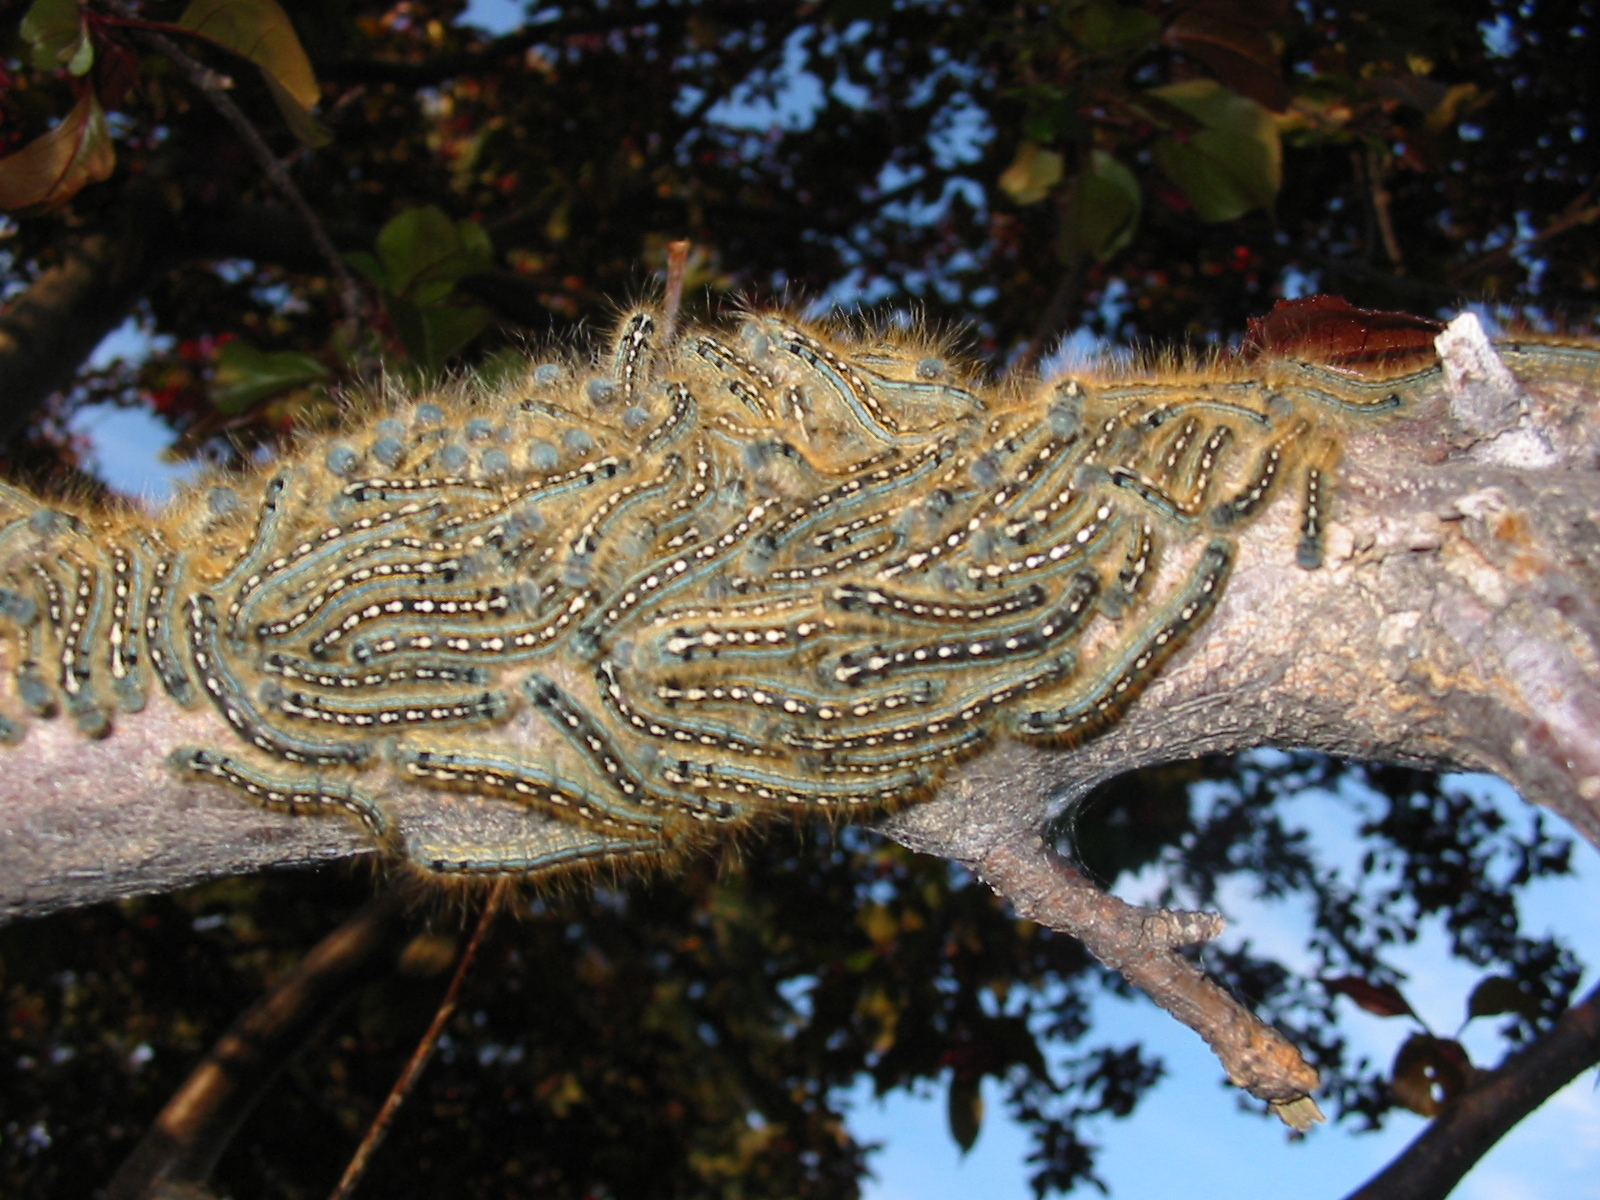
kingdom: Animalia
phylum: Arthropoda
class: Insecta
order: Lepidoptera
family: Lasiocampidae
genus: Malacosoma
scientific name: Malacosoma disstria
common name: Forest tent caterpillar
